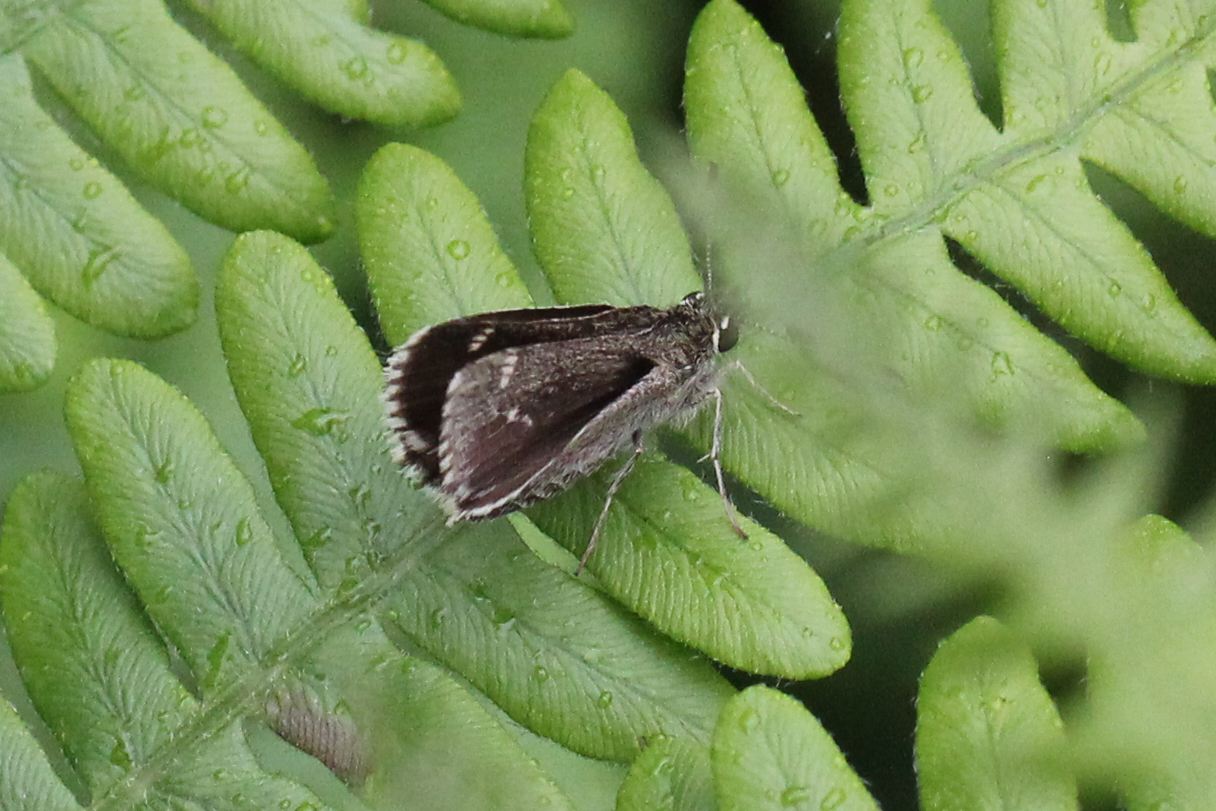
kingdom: Animalia
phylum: Arthropoda
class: Insecta
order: Lepidoptera
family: Hesperiidae
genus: Mastor
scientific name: Mastor hegon
